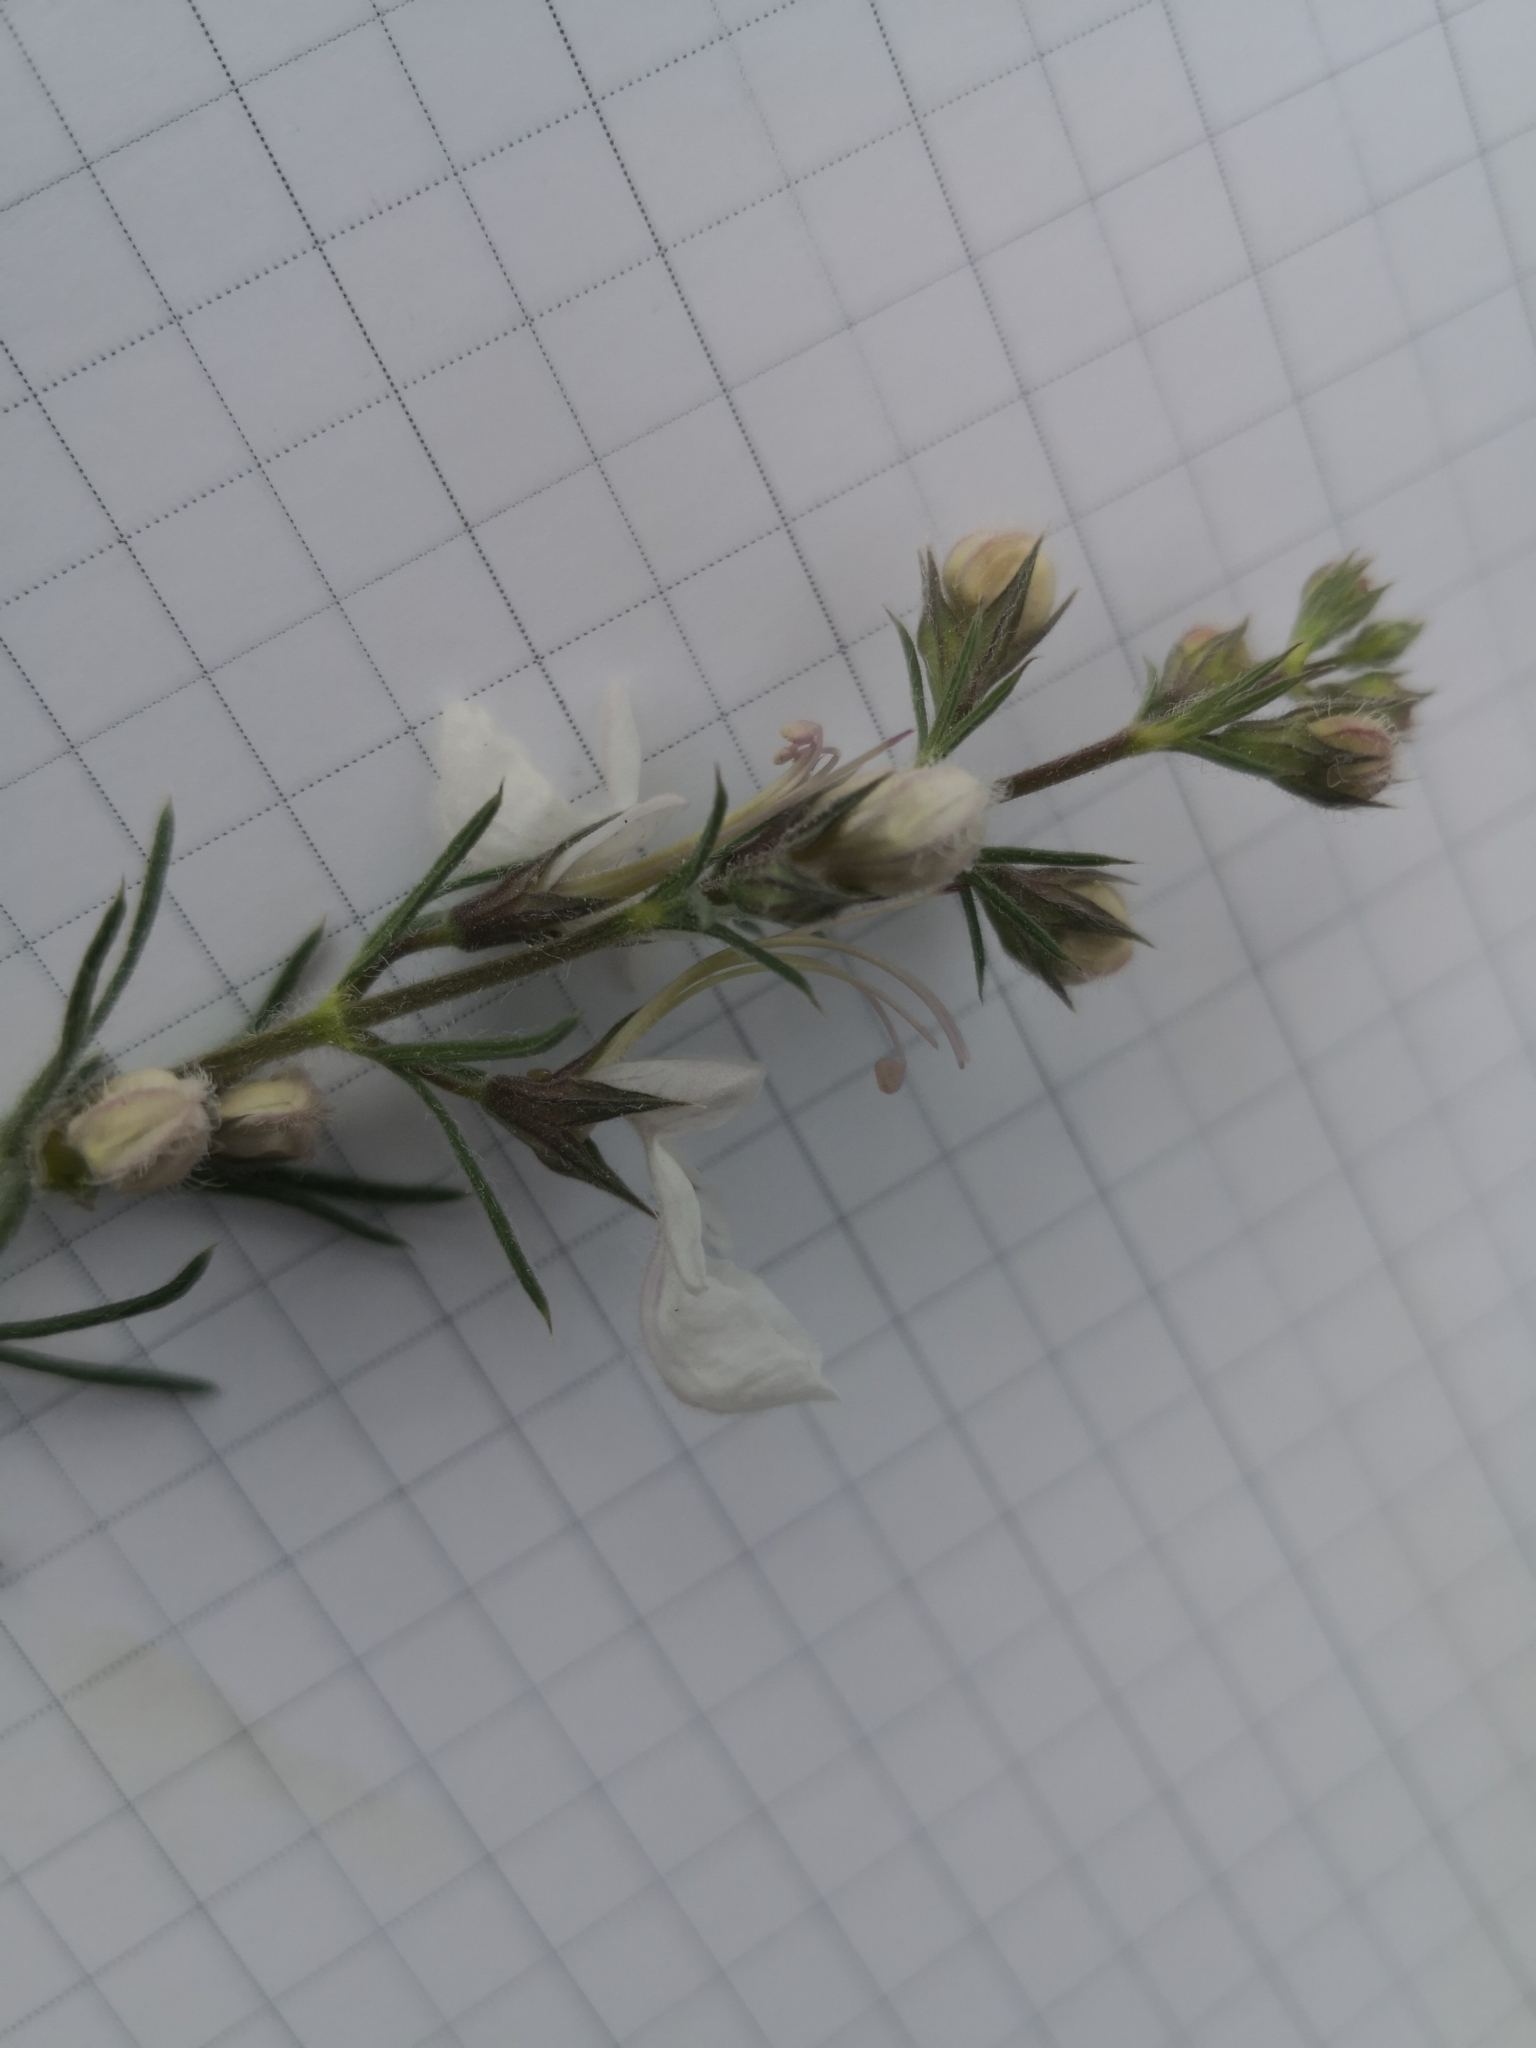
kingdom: Plantae
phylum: Tracheophyta
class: Magnoliopsida
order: Lamiales
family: Lamiaceae
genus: Teucrium
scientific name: Teucrium pseudochamaepitys
